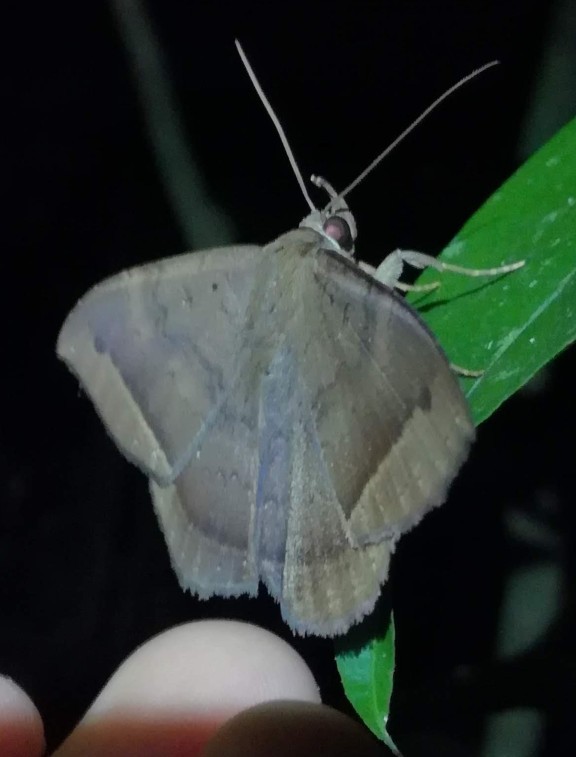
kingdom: Animalia
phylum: Arthropoda
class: Insecta
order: Lepidoptera
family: Erebidae
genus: Hemeroblemma
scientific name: Hemeroblemma scolopacea
